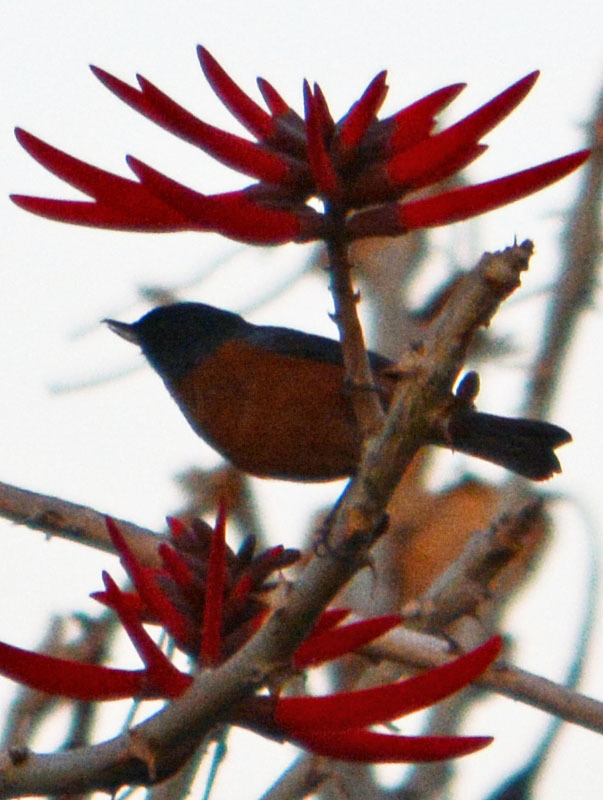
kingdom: Animalia
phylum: Chordata
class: Aves
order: Passeriformes
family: Thraupidae
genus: Diglossa
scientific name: Diglossa baritula
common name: Cinnamon-bellied flowerpiercer
